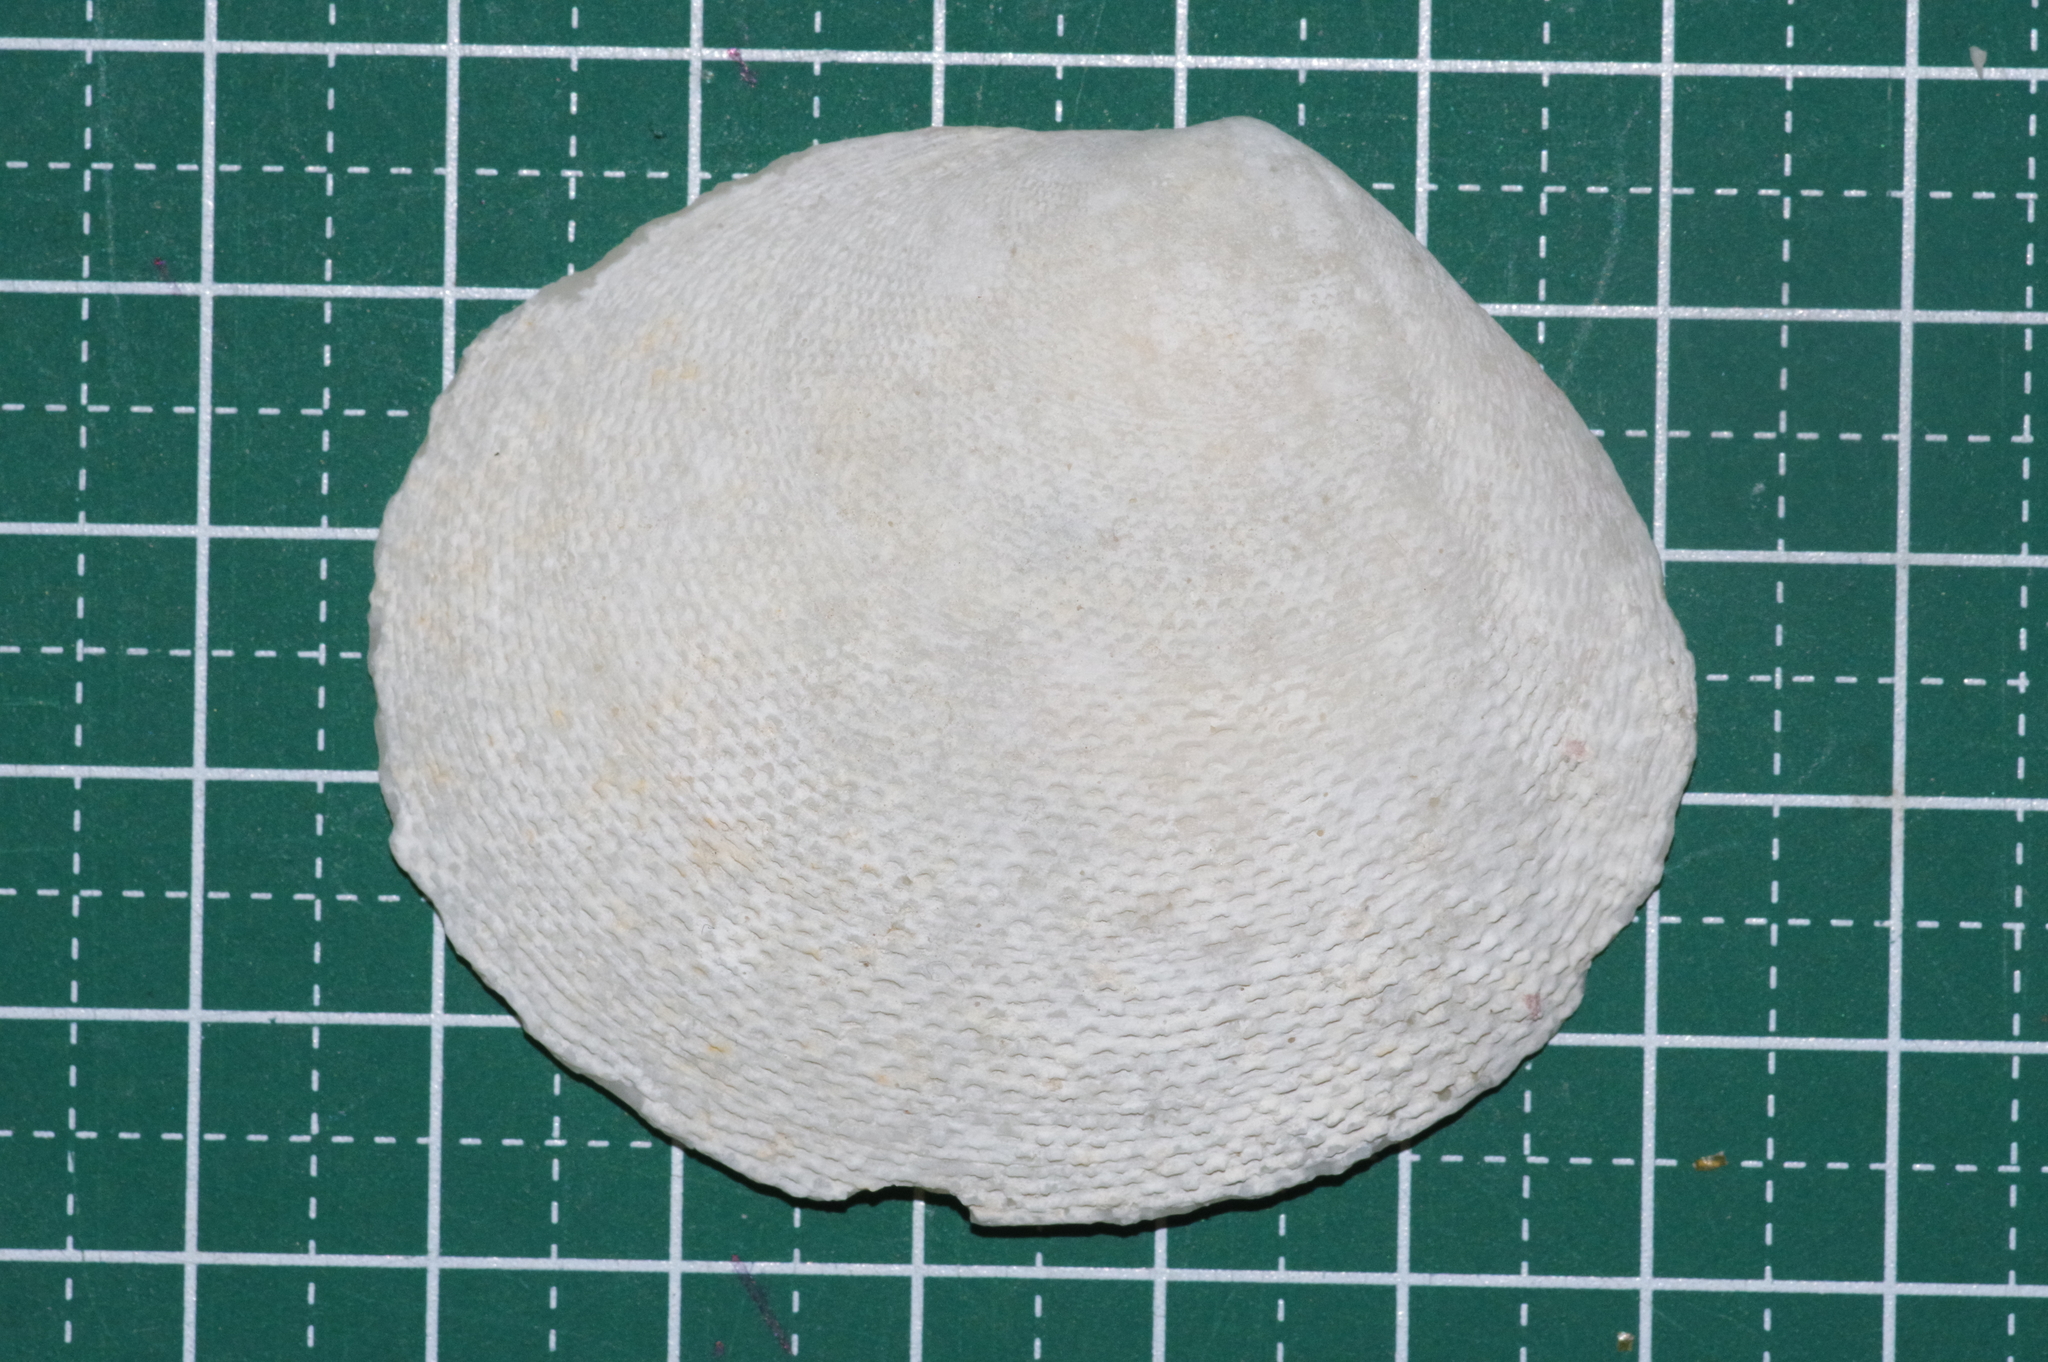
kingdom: Animalia
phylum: Mollusca
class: Bivalvia
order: Cardiida
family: Tellinidae
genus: Scutarcopagia
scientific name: Scutarcopagia scobinata
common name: Rasp tellin
